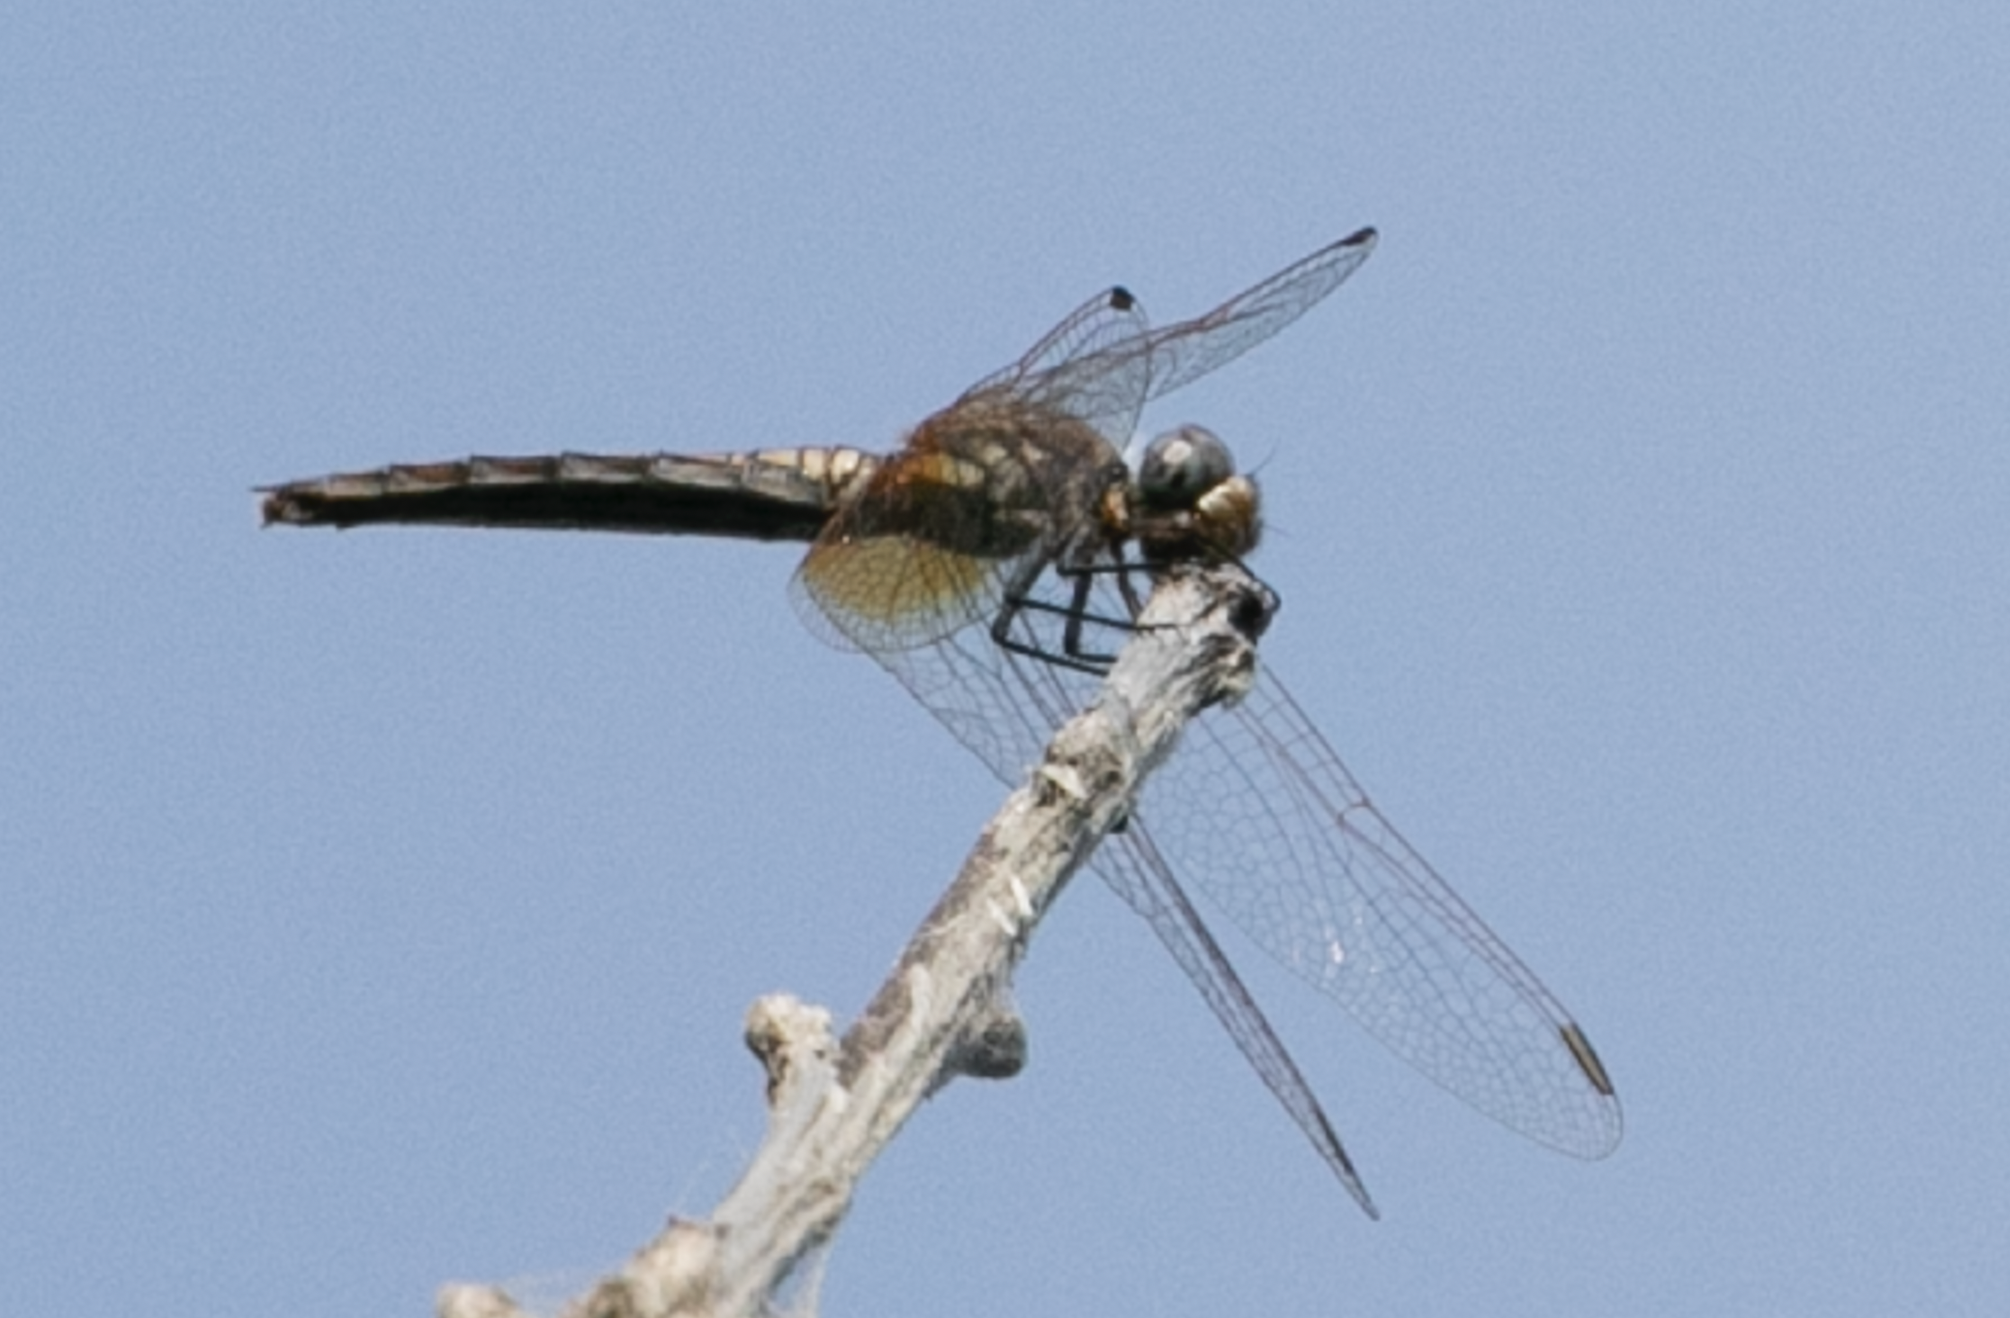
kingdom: Animalia
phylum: Arthropoda
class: Insecta
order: Odonata
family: Libellulidae
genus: Trithemis
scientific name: Trithemis annulata
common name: Violet dropwing
